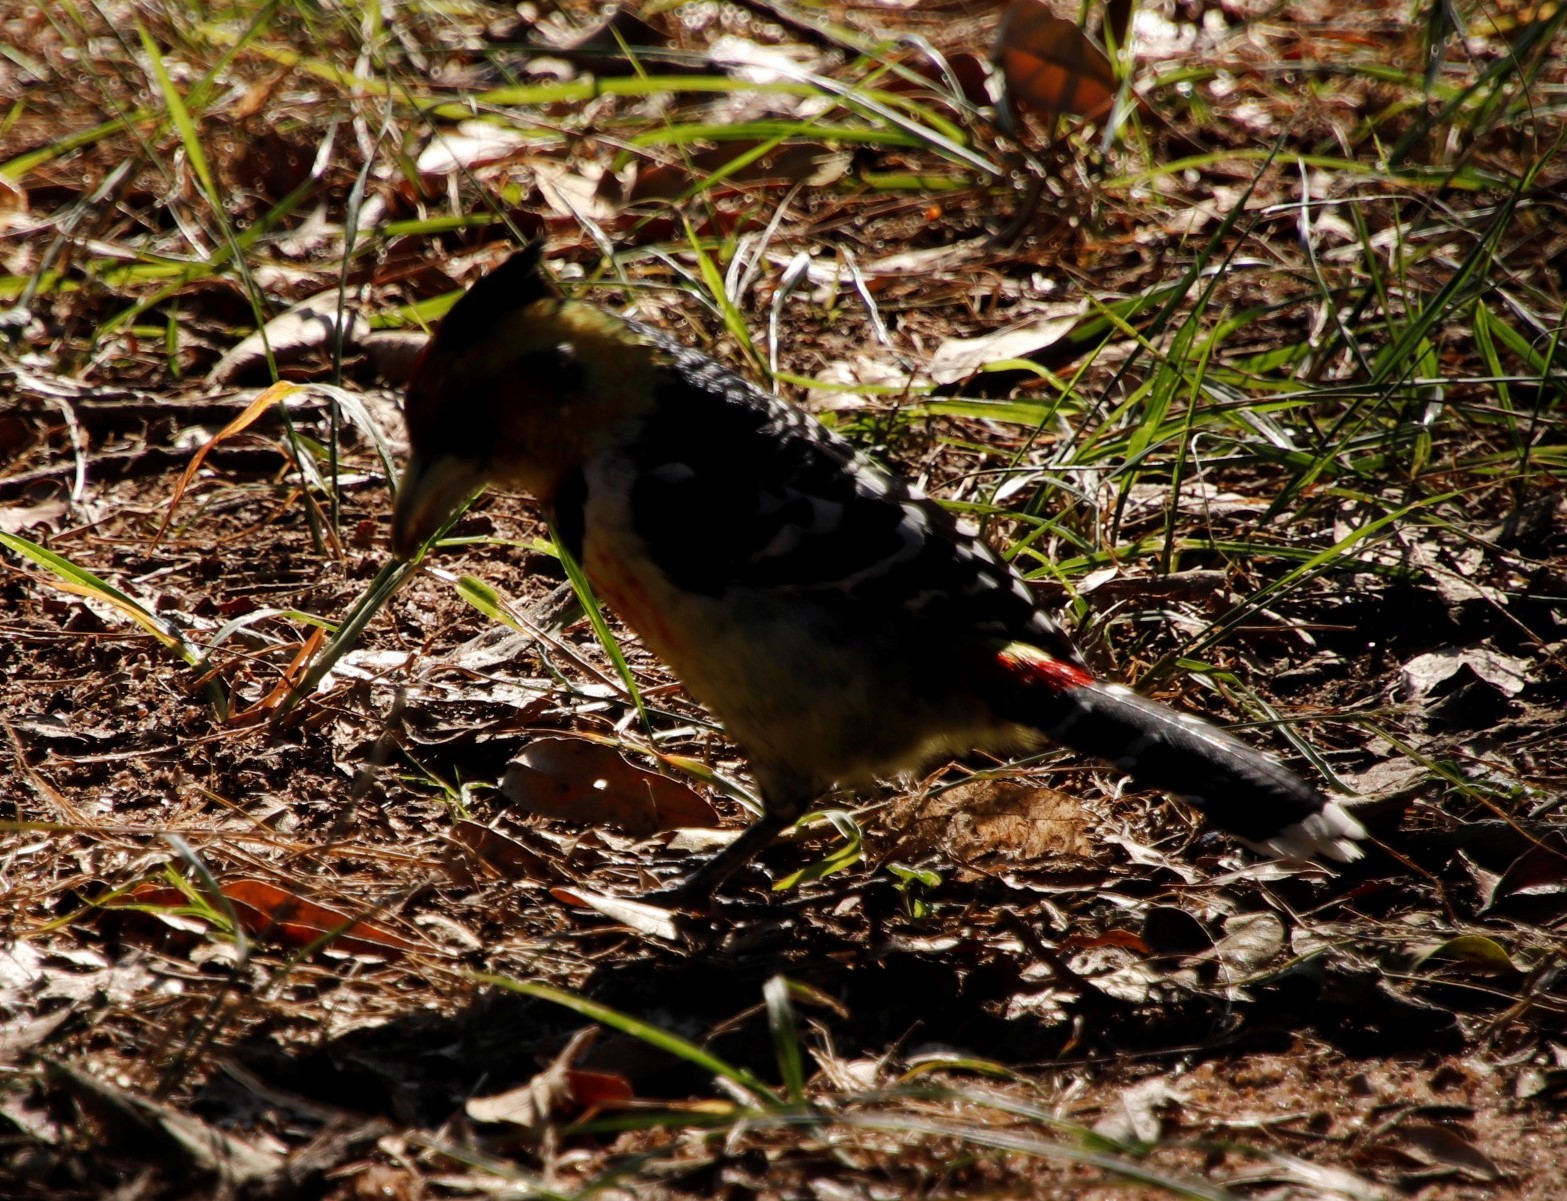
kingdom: Animalia
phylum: Chordata
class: Aves
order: Piciformes
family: Lybiidae
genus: Trachyphonus
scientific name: Trachyphonus vaillantii
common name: Crested barbet
